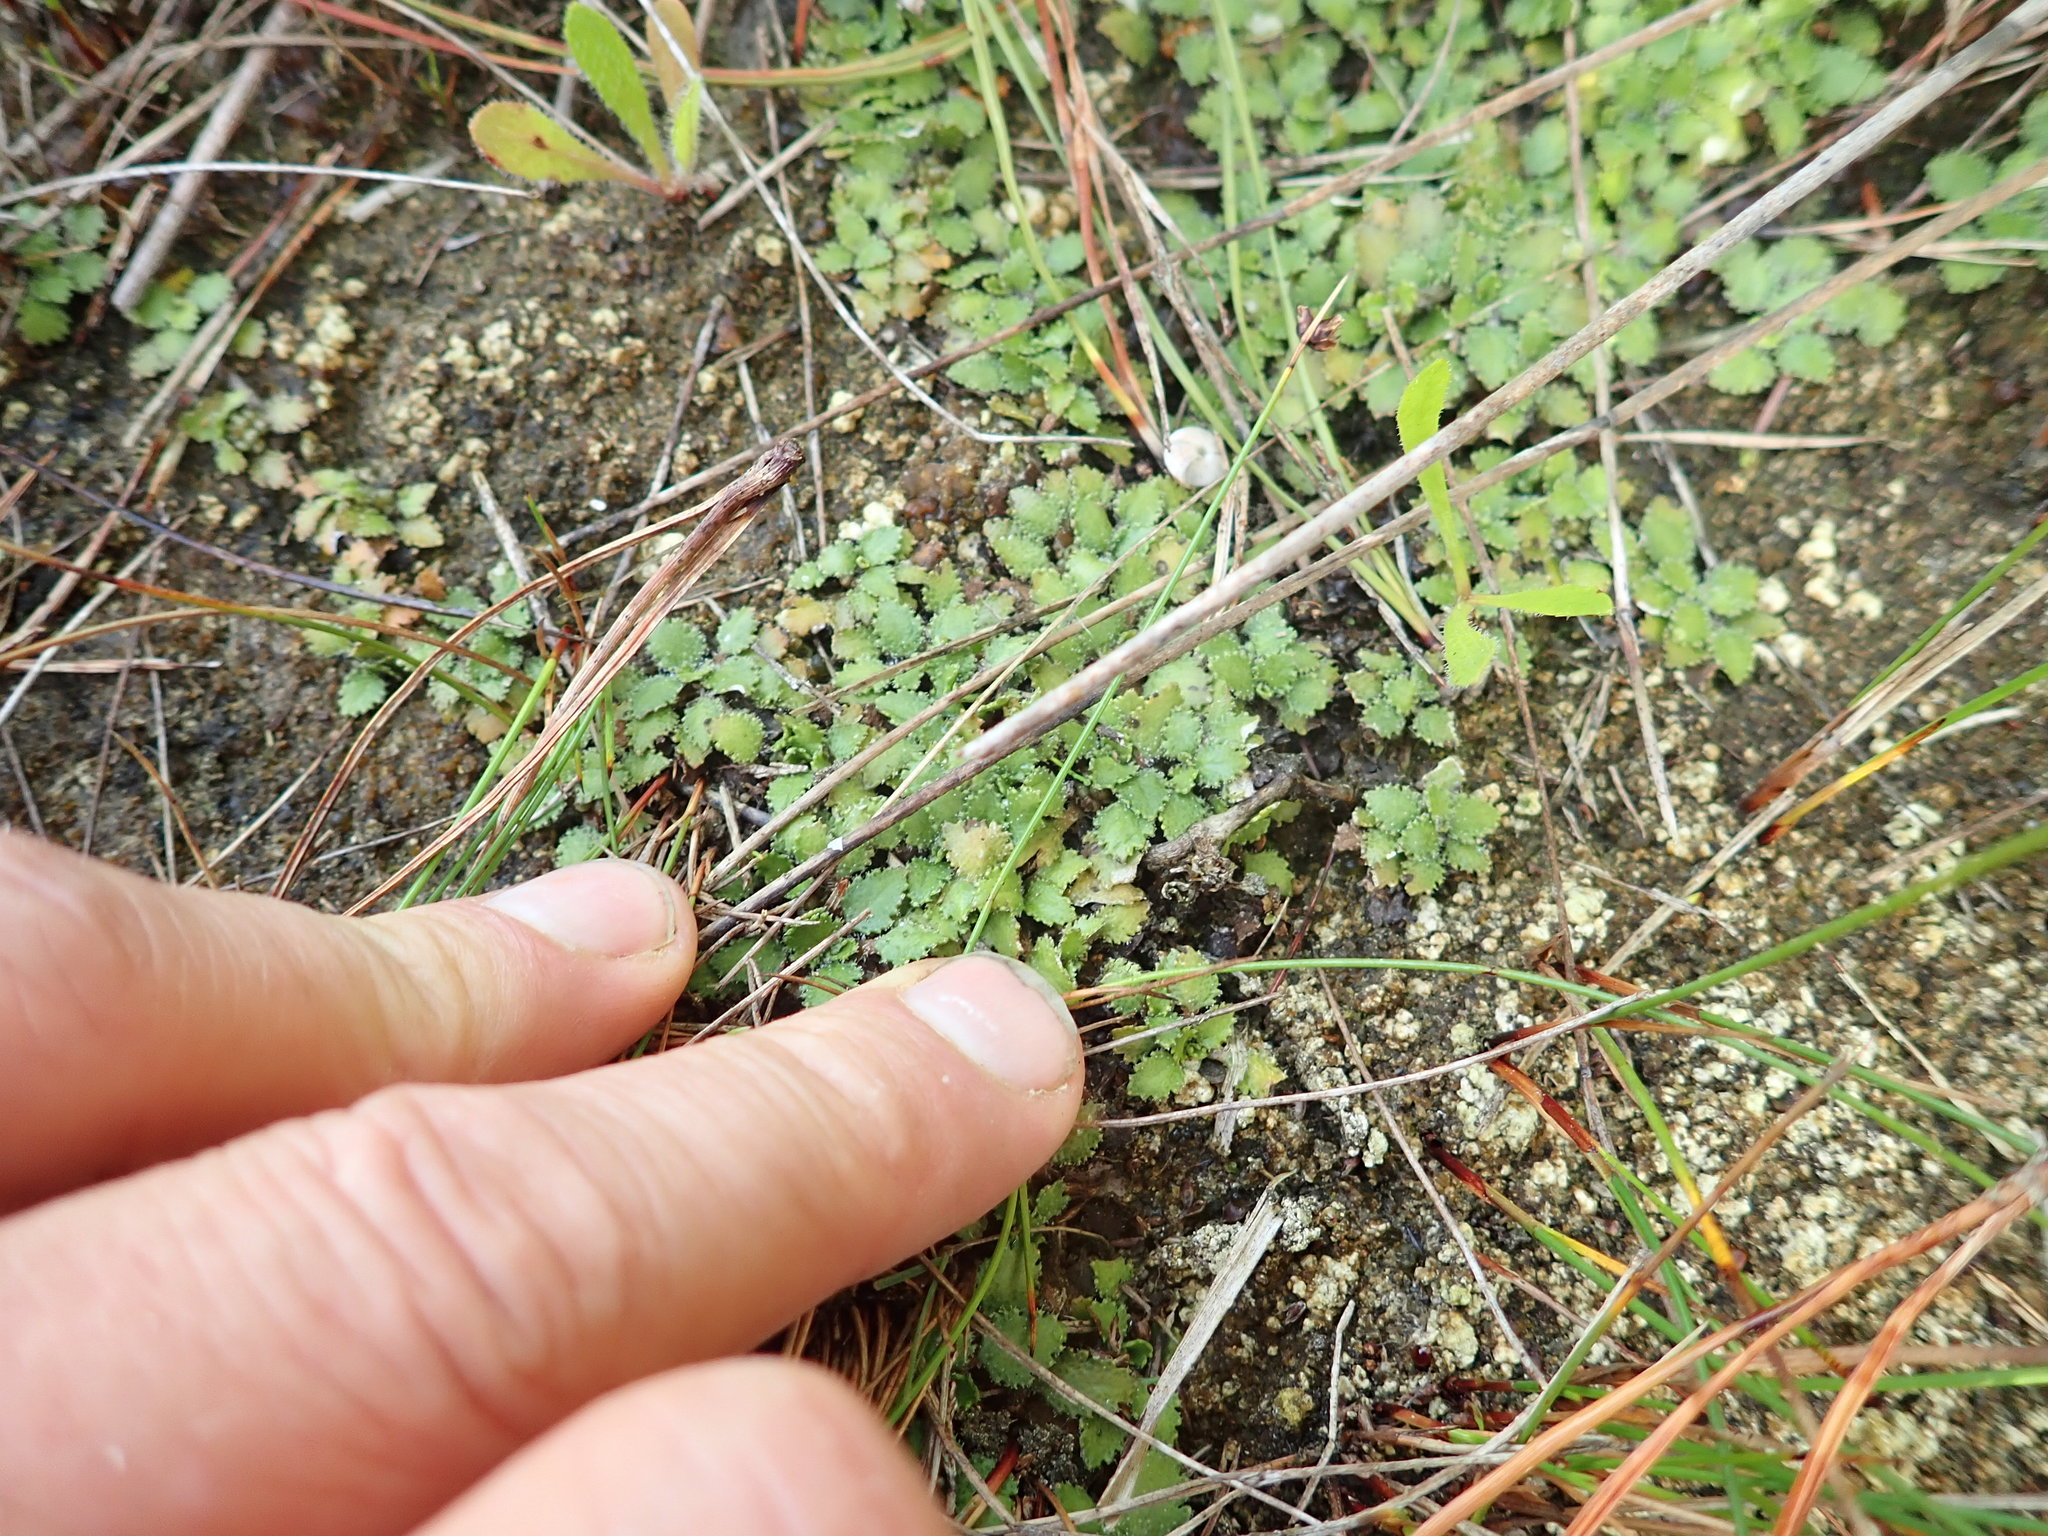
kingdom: Plantae
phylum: Tracheophyta
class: Magnoliopsida
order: Gunnerales
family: Gunneraceae
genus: Gunnera
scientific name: Gunnera dentata
